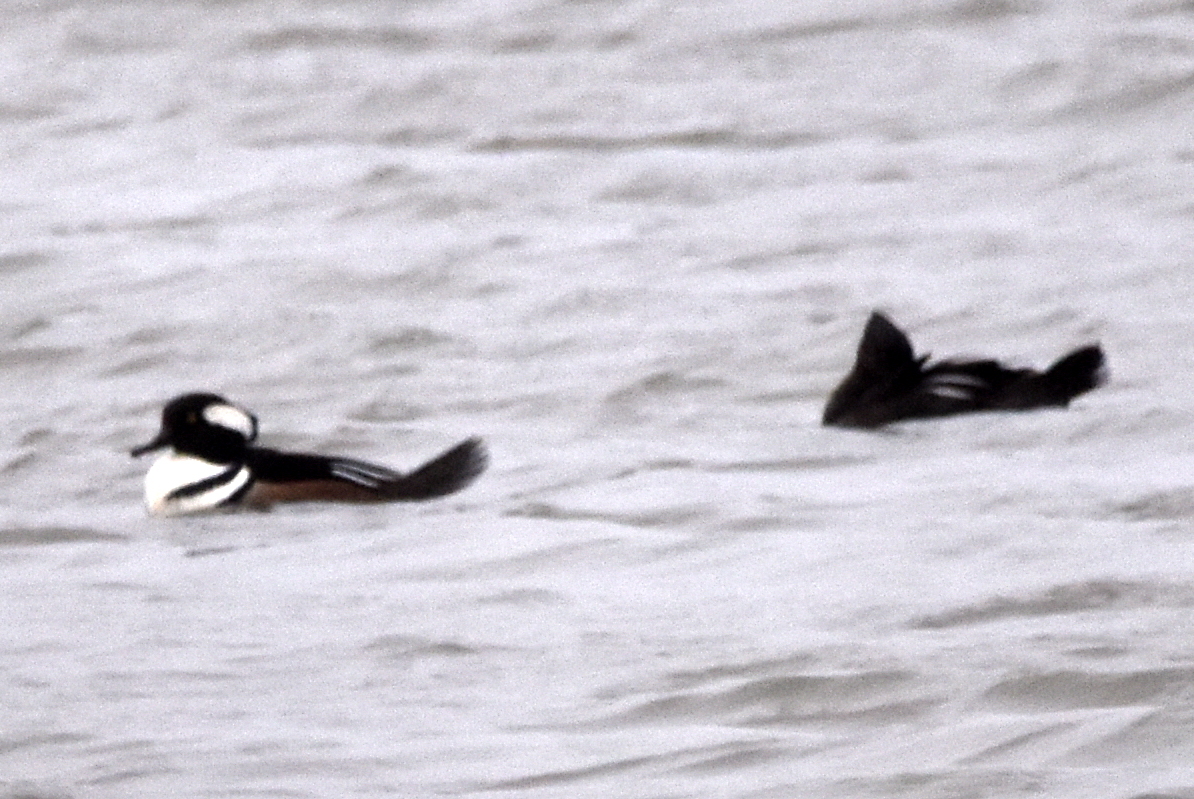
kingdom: Animalia
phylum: Chordata
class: Aves
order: Anseriformes
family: Anatidae
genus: Lophodytes
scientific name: Lophodytes cucullatus
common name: Hooded merganser
